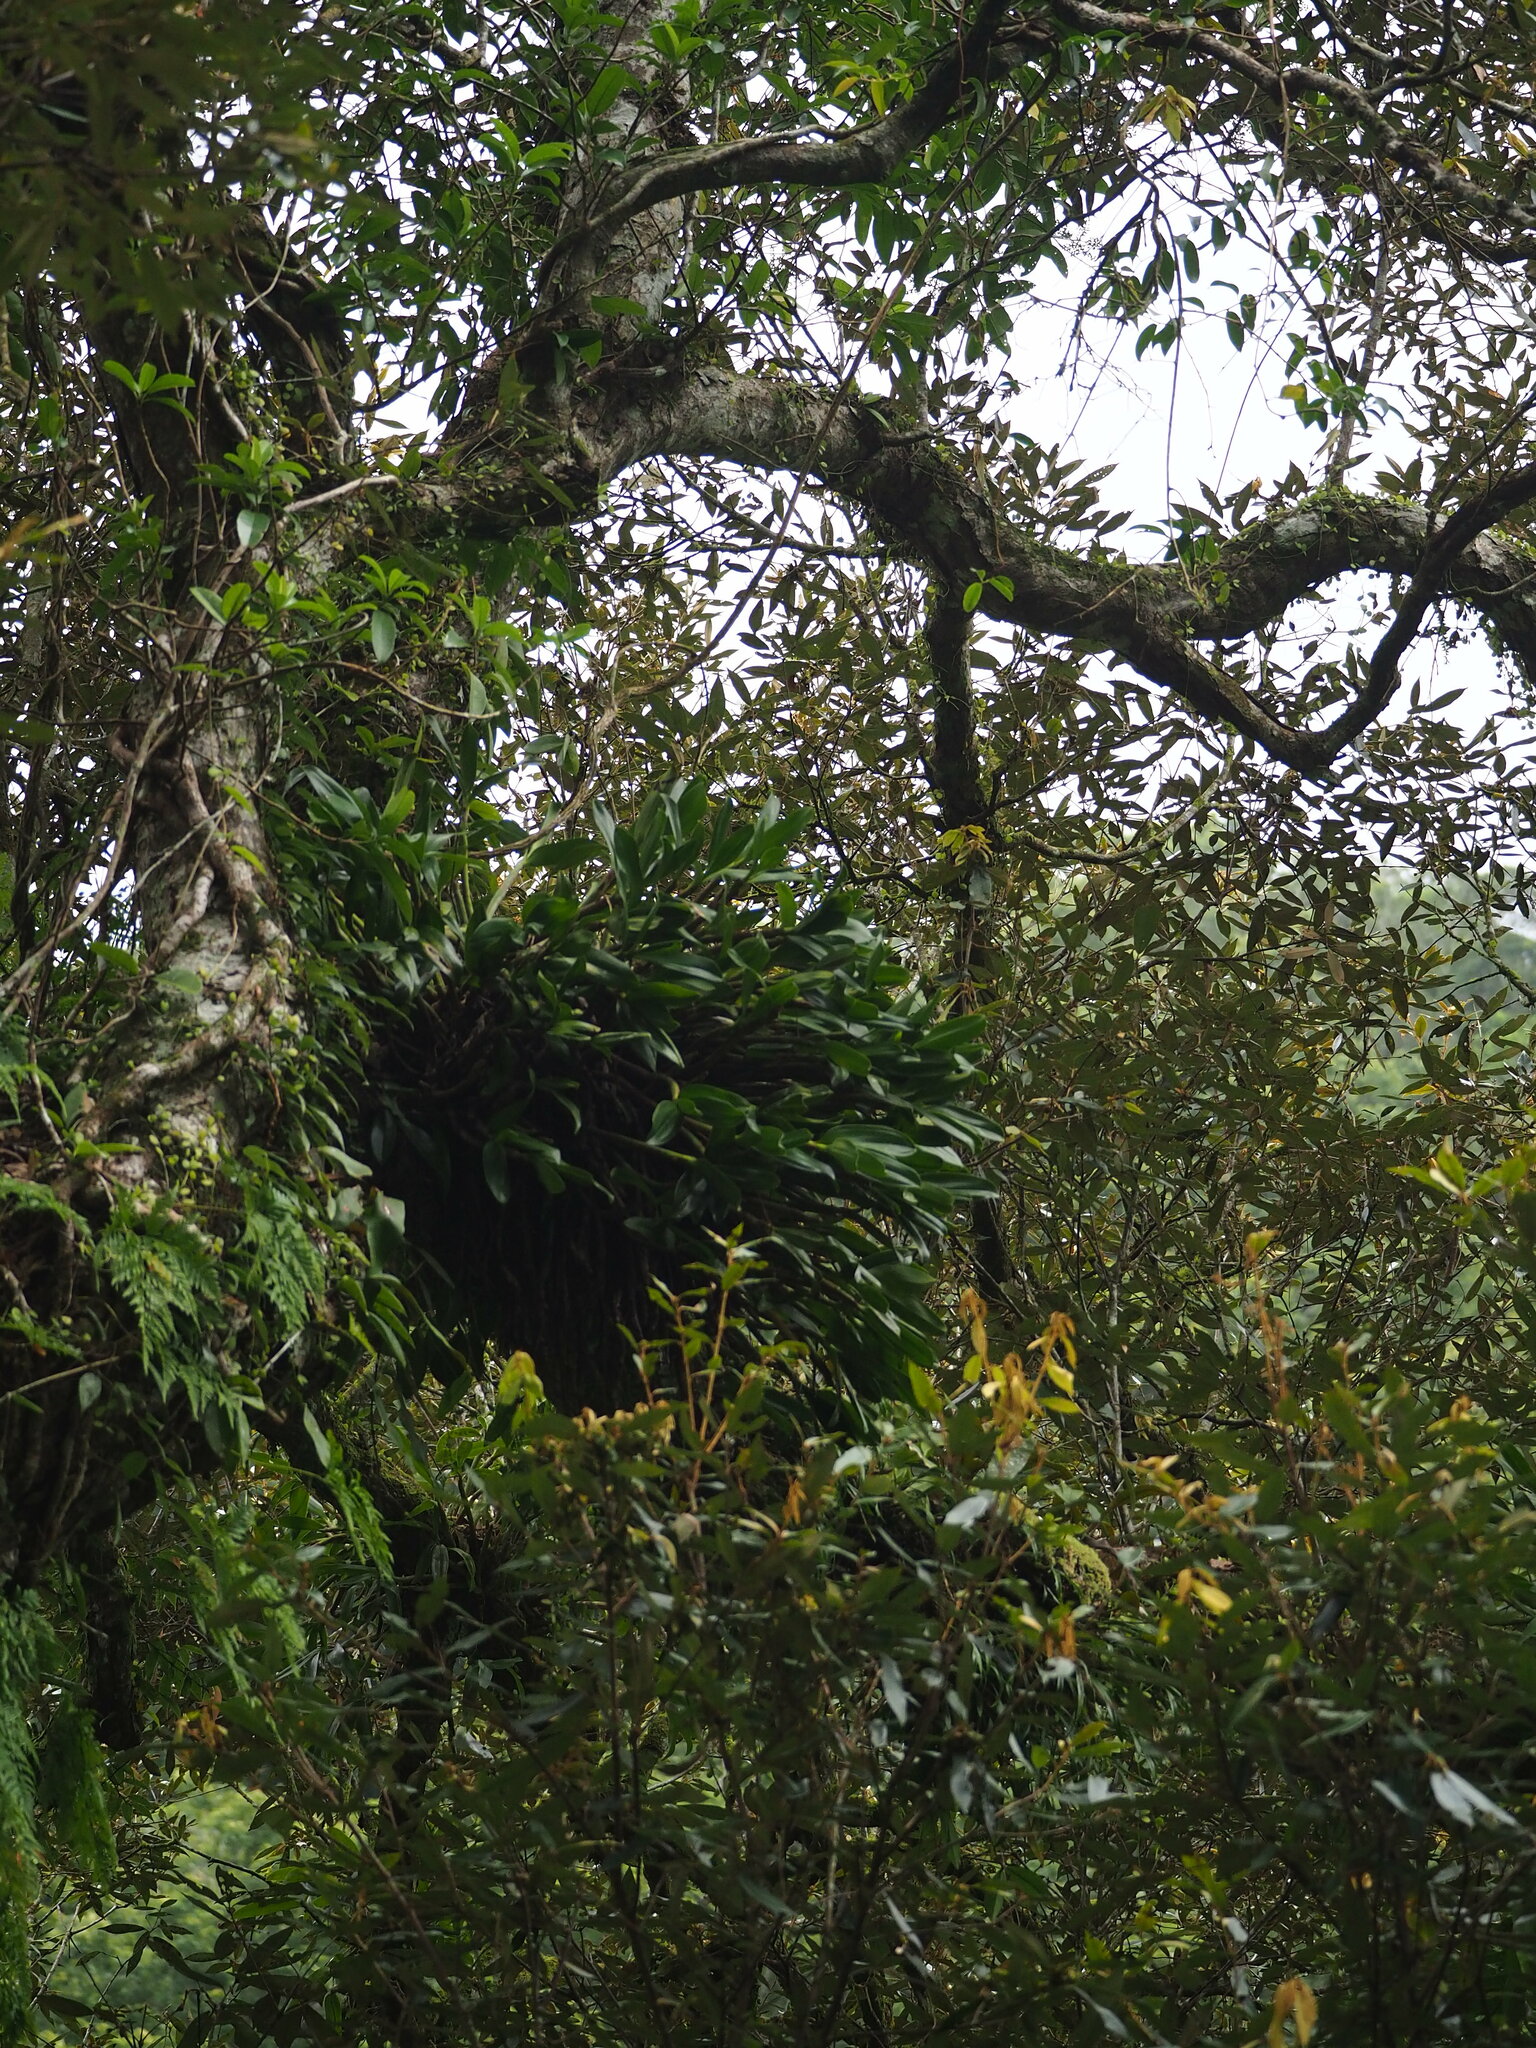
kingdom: Plantae
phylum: Tracheophyta
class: Liliopsida
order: Asparagales
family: Orchidaceae
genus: Pinalia
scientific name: Pinalia ovata
